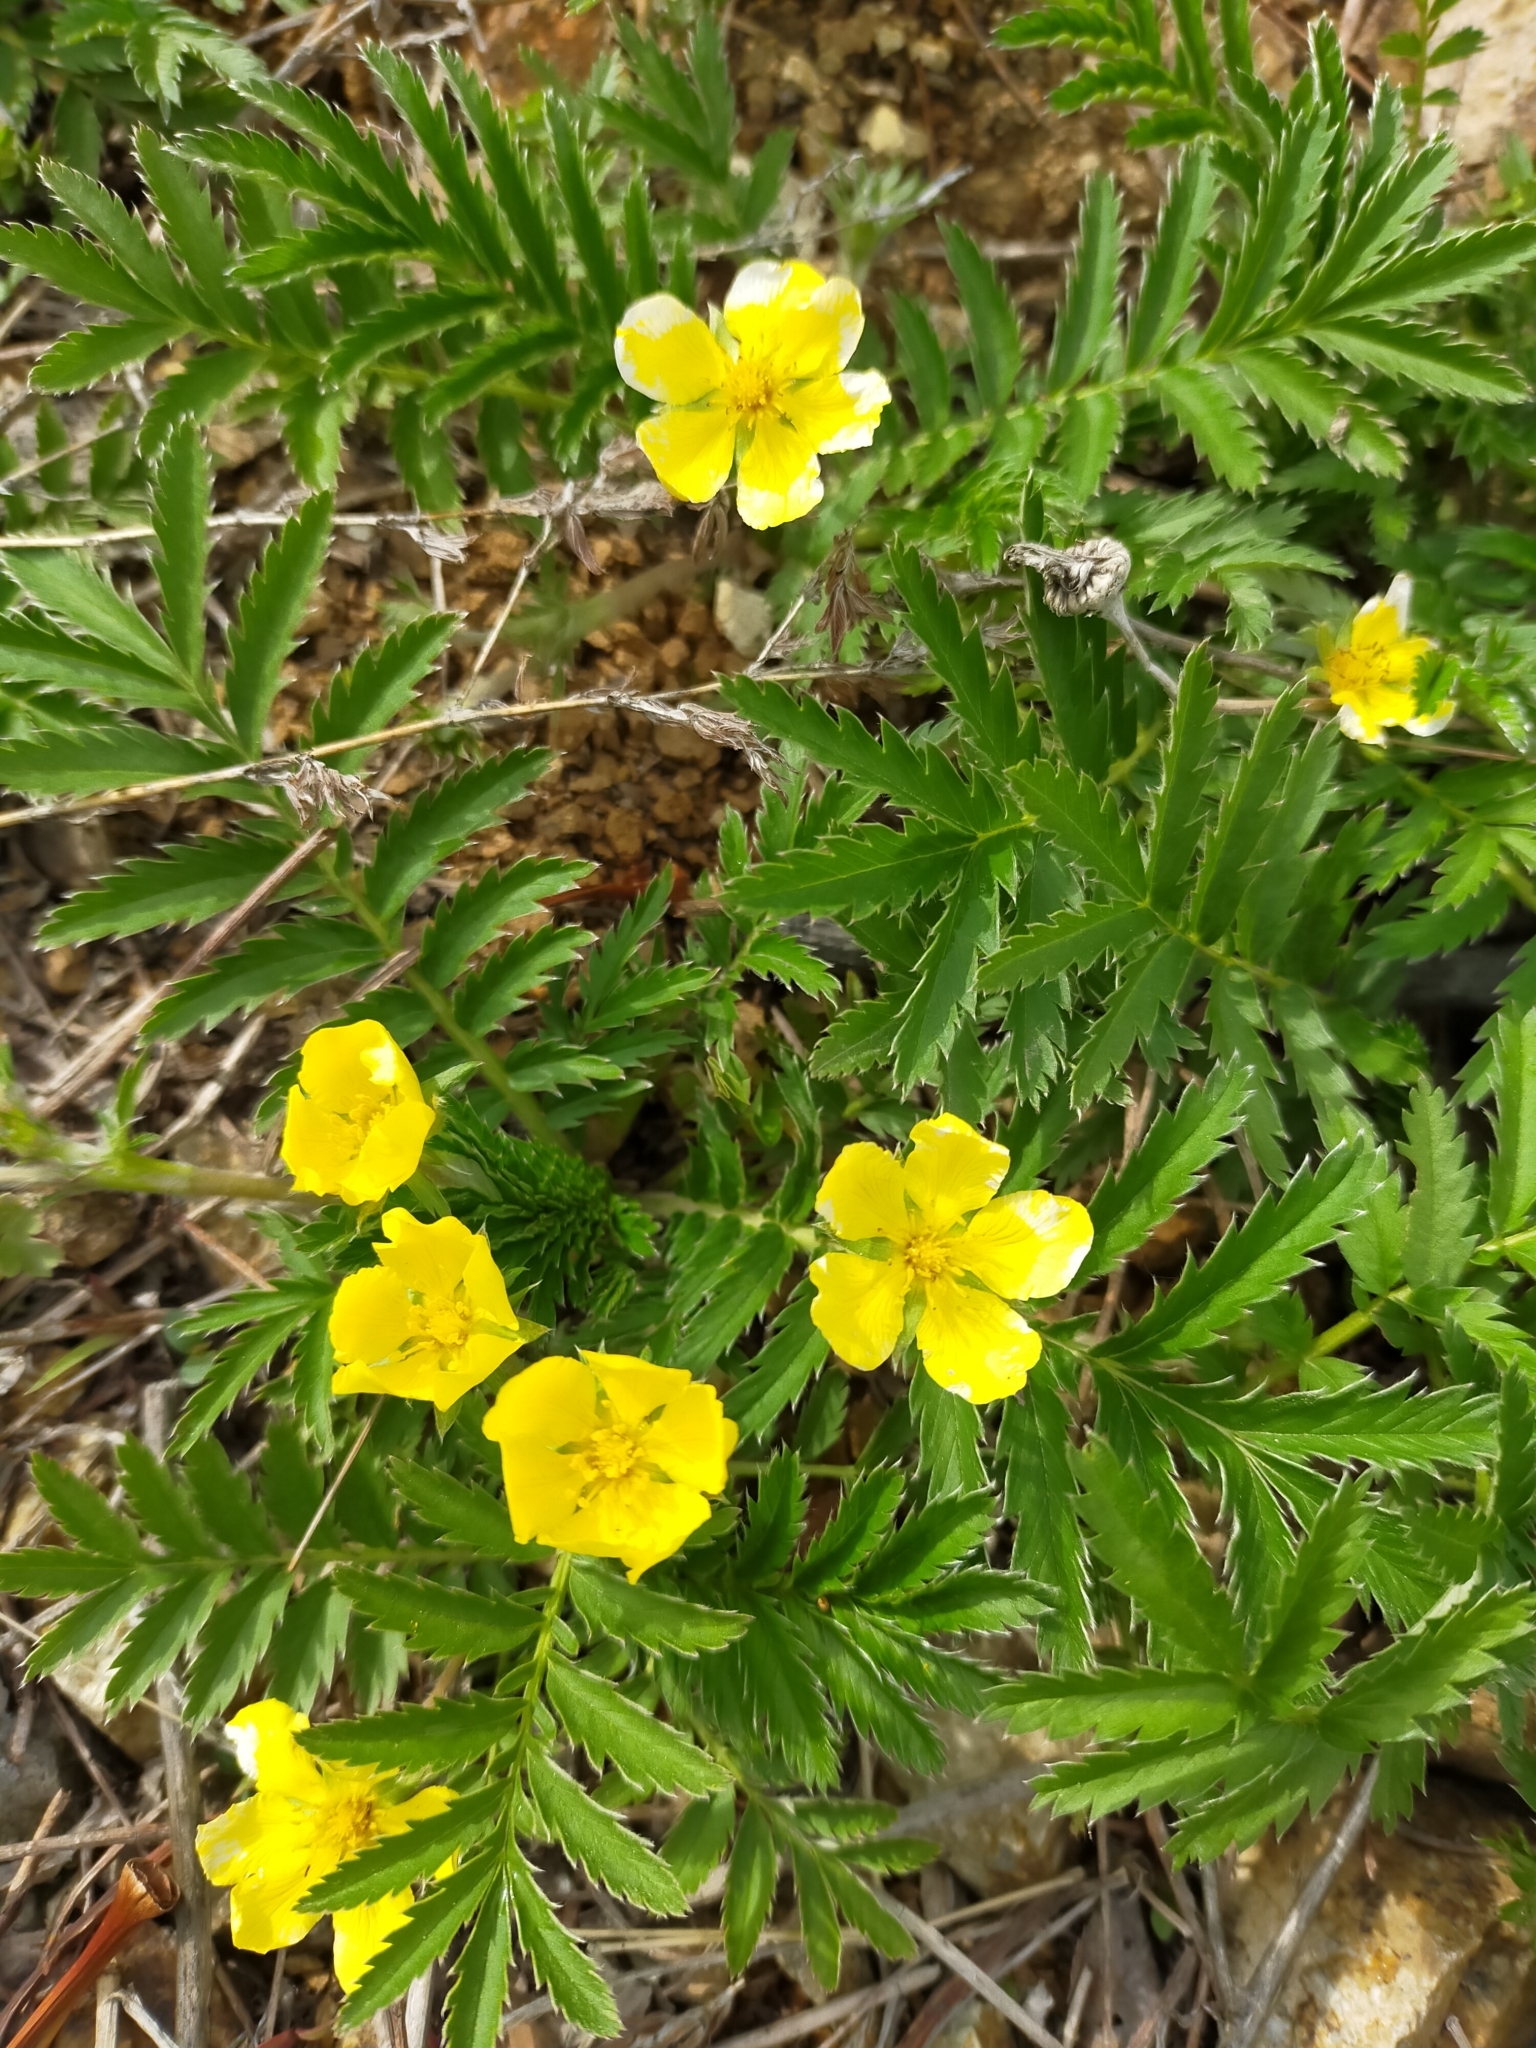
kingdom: Plantae
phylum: Tracheophyta
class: Magnoliopsida
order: Rosales
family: Rosaceae
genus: Argentina
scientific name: Argentina anserina
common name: Common silverweed
